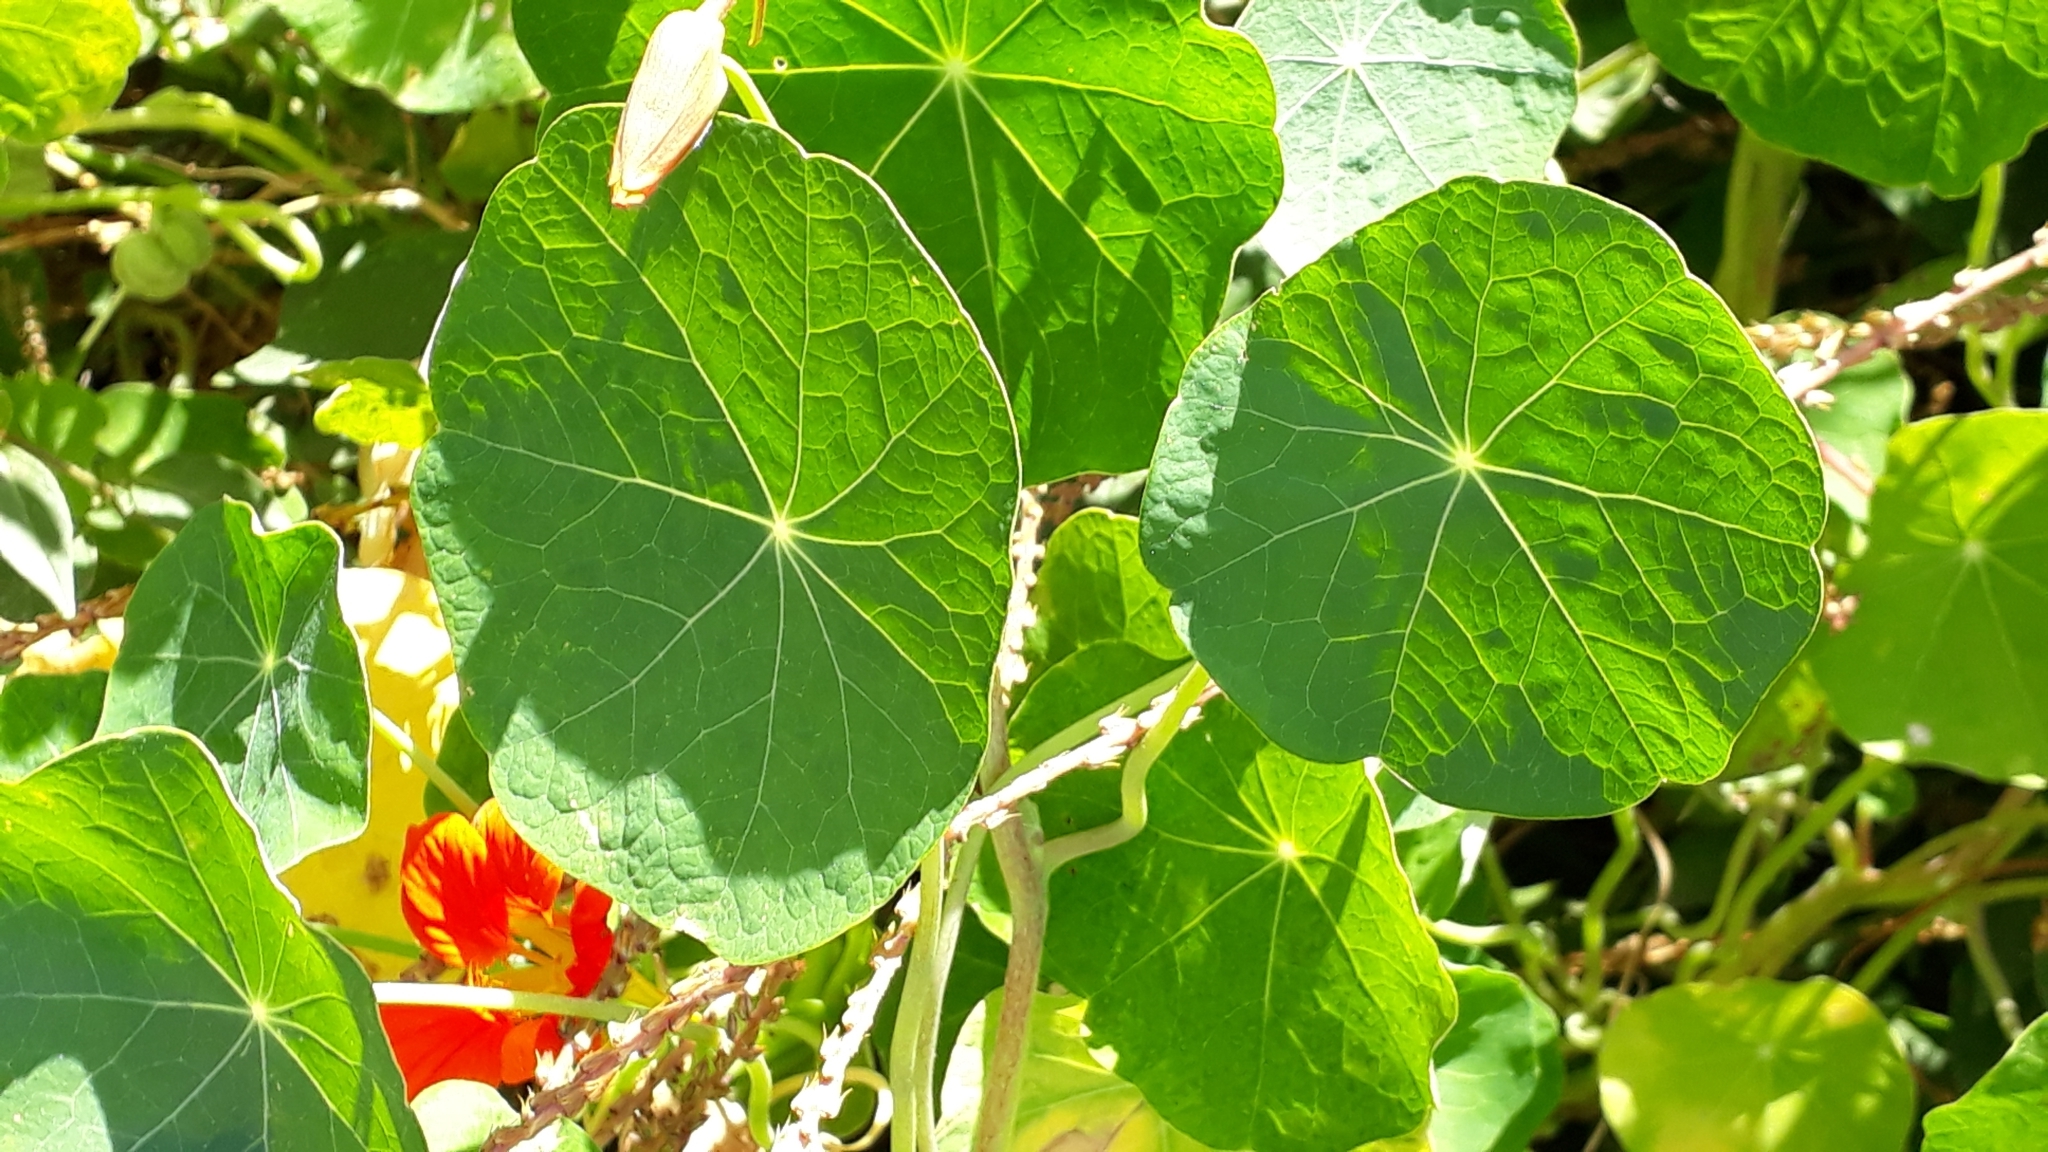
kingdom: Plantae
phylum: Tracheophyta
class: Magnoliopsida
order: Brassicales
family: Tropaeolaceae
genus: Tropaeolum
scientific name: Tropaeolum majus
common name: Nasturtium
